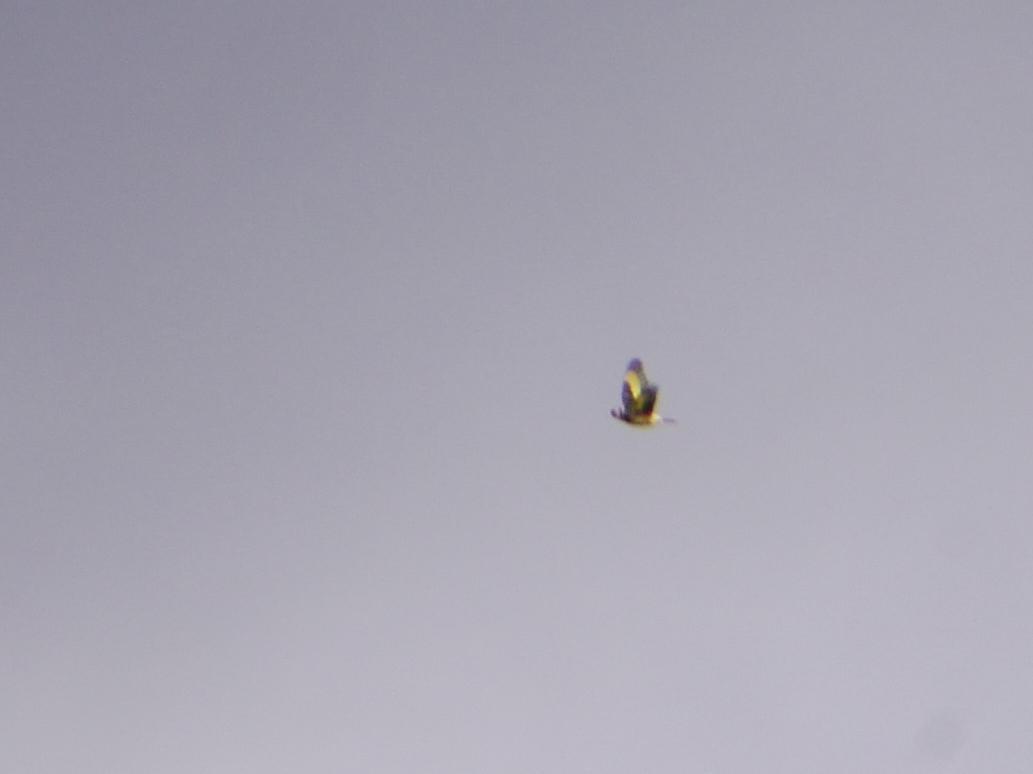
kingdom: Animalia
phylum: Chordata
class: Aves
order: Passeriformes
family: Fringillidae
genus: Carduelis
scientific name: Carduelis carduelis
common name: European goldfinch
